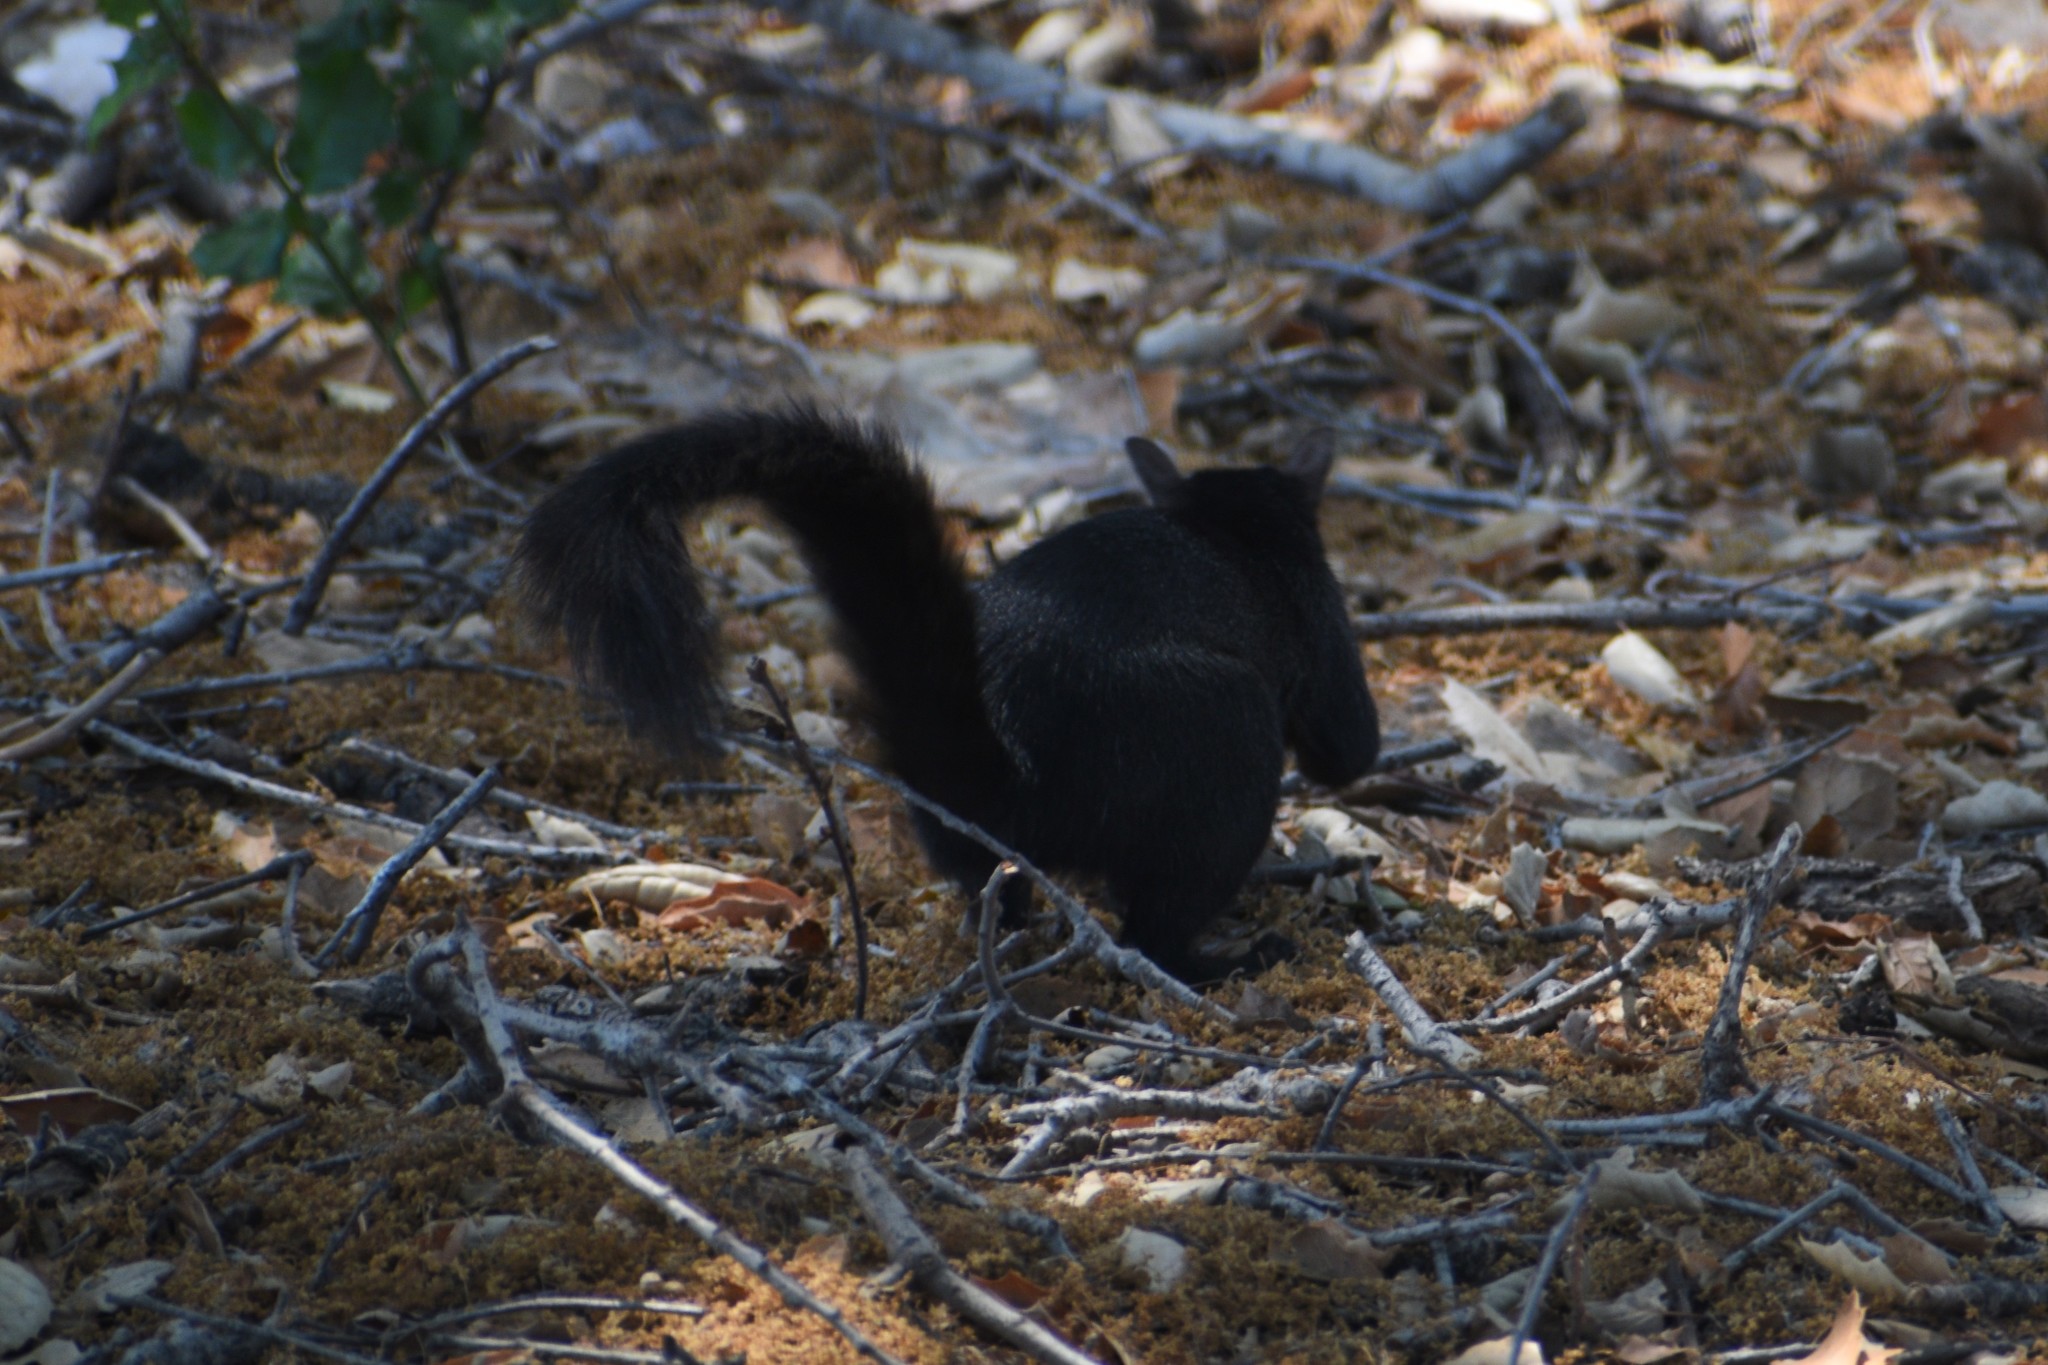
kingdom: Animalia
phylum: Chordata
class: Mammalia
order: Rodentia
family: Sciuridae
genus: Sciurus
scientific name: Sciurus carolinensis
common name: Eastern gray squirrel
